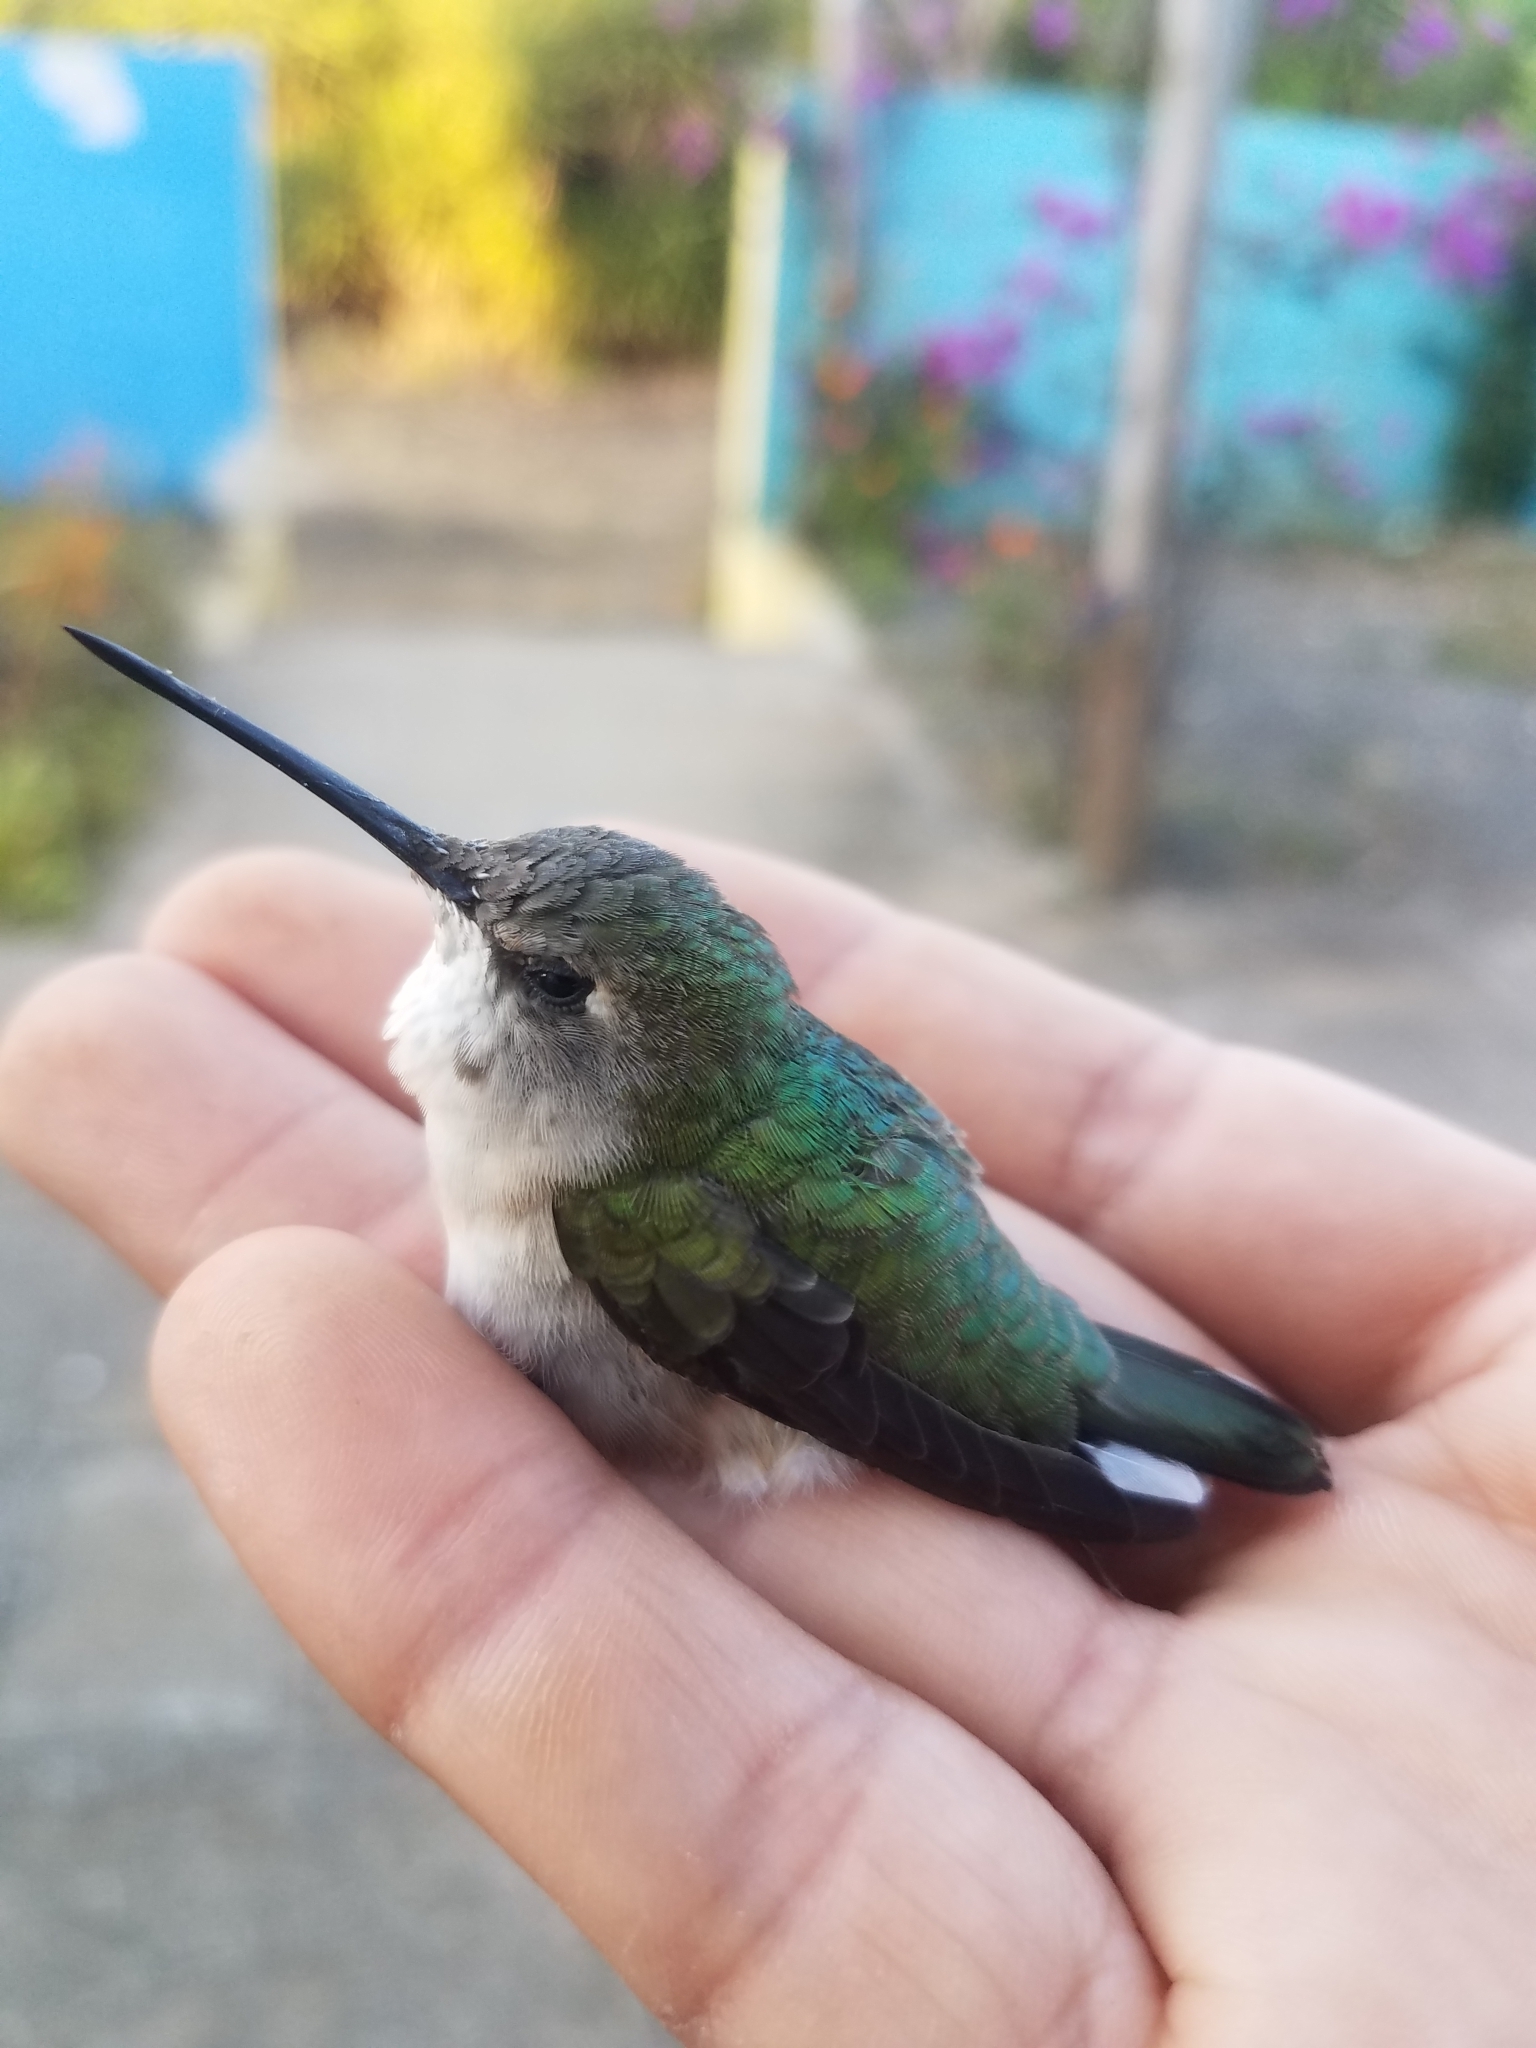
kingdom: Animalia
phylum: Chordata
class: Aves
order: Apodiformes
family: Trochilidae
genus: Archilochus
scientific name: Archilochus colubris
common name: Ruby-throated hummingbird
